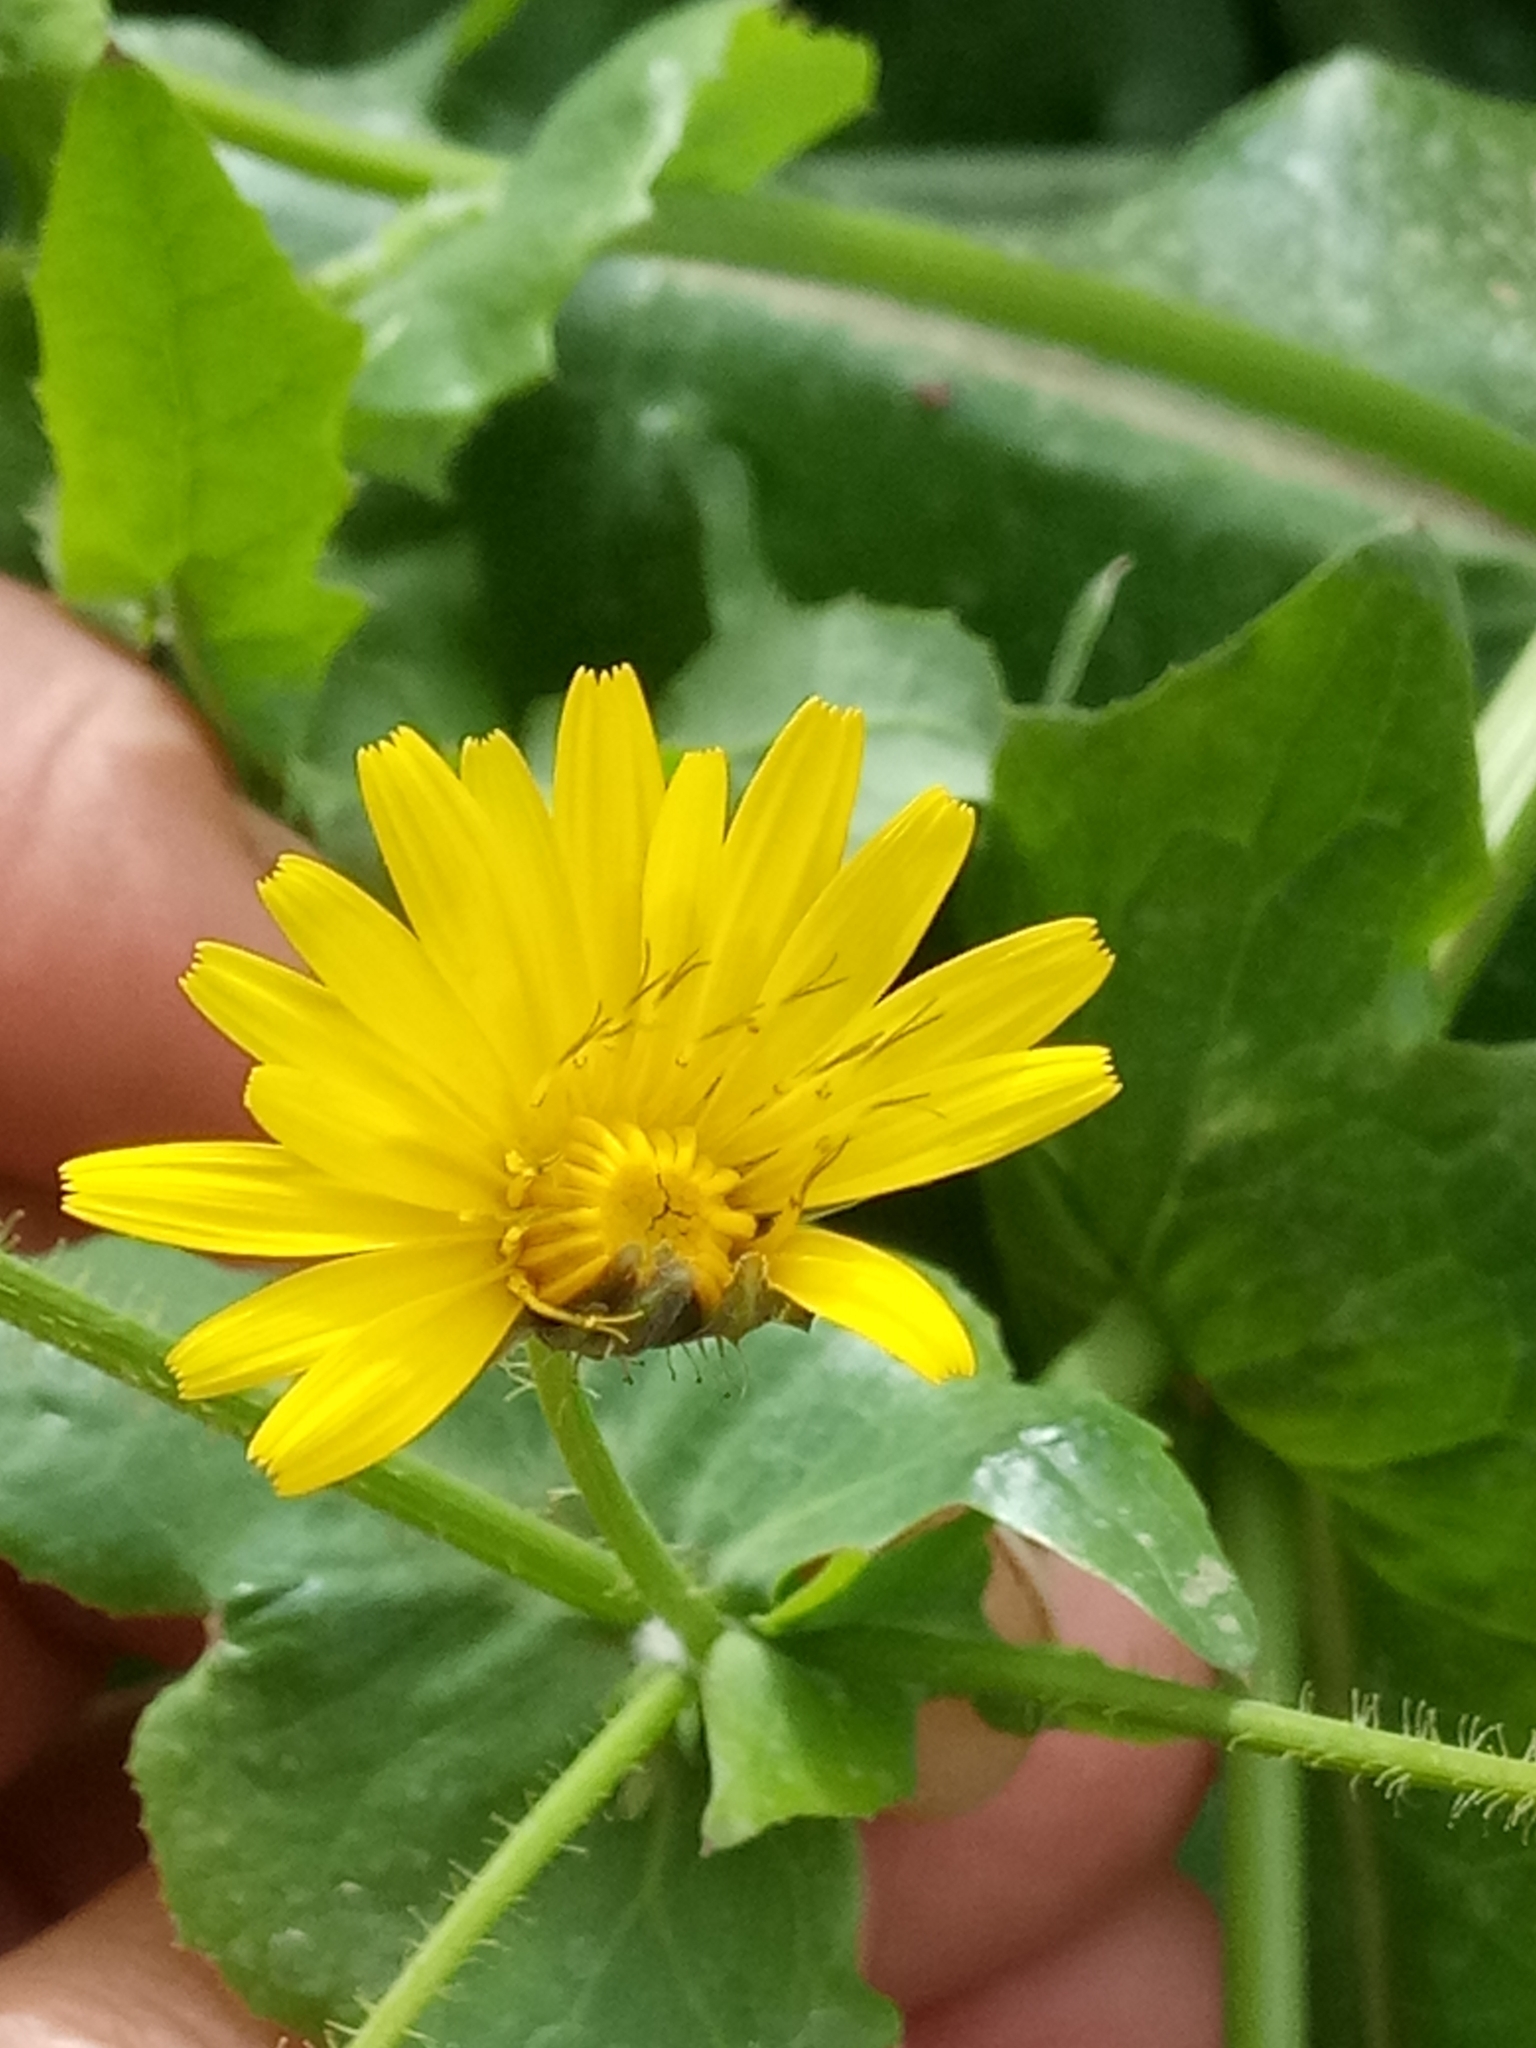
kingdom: Plantae
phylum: Tracheophyta
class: Magnoliopsida
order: Asterales
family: Asteraceae
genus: Sonchus
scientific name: Sonchus tenerrimus
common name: Clammy sowthistle
